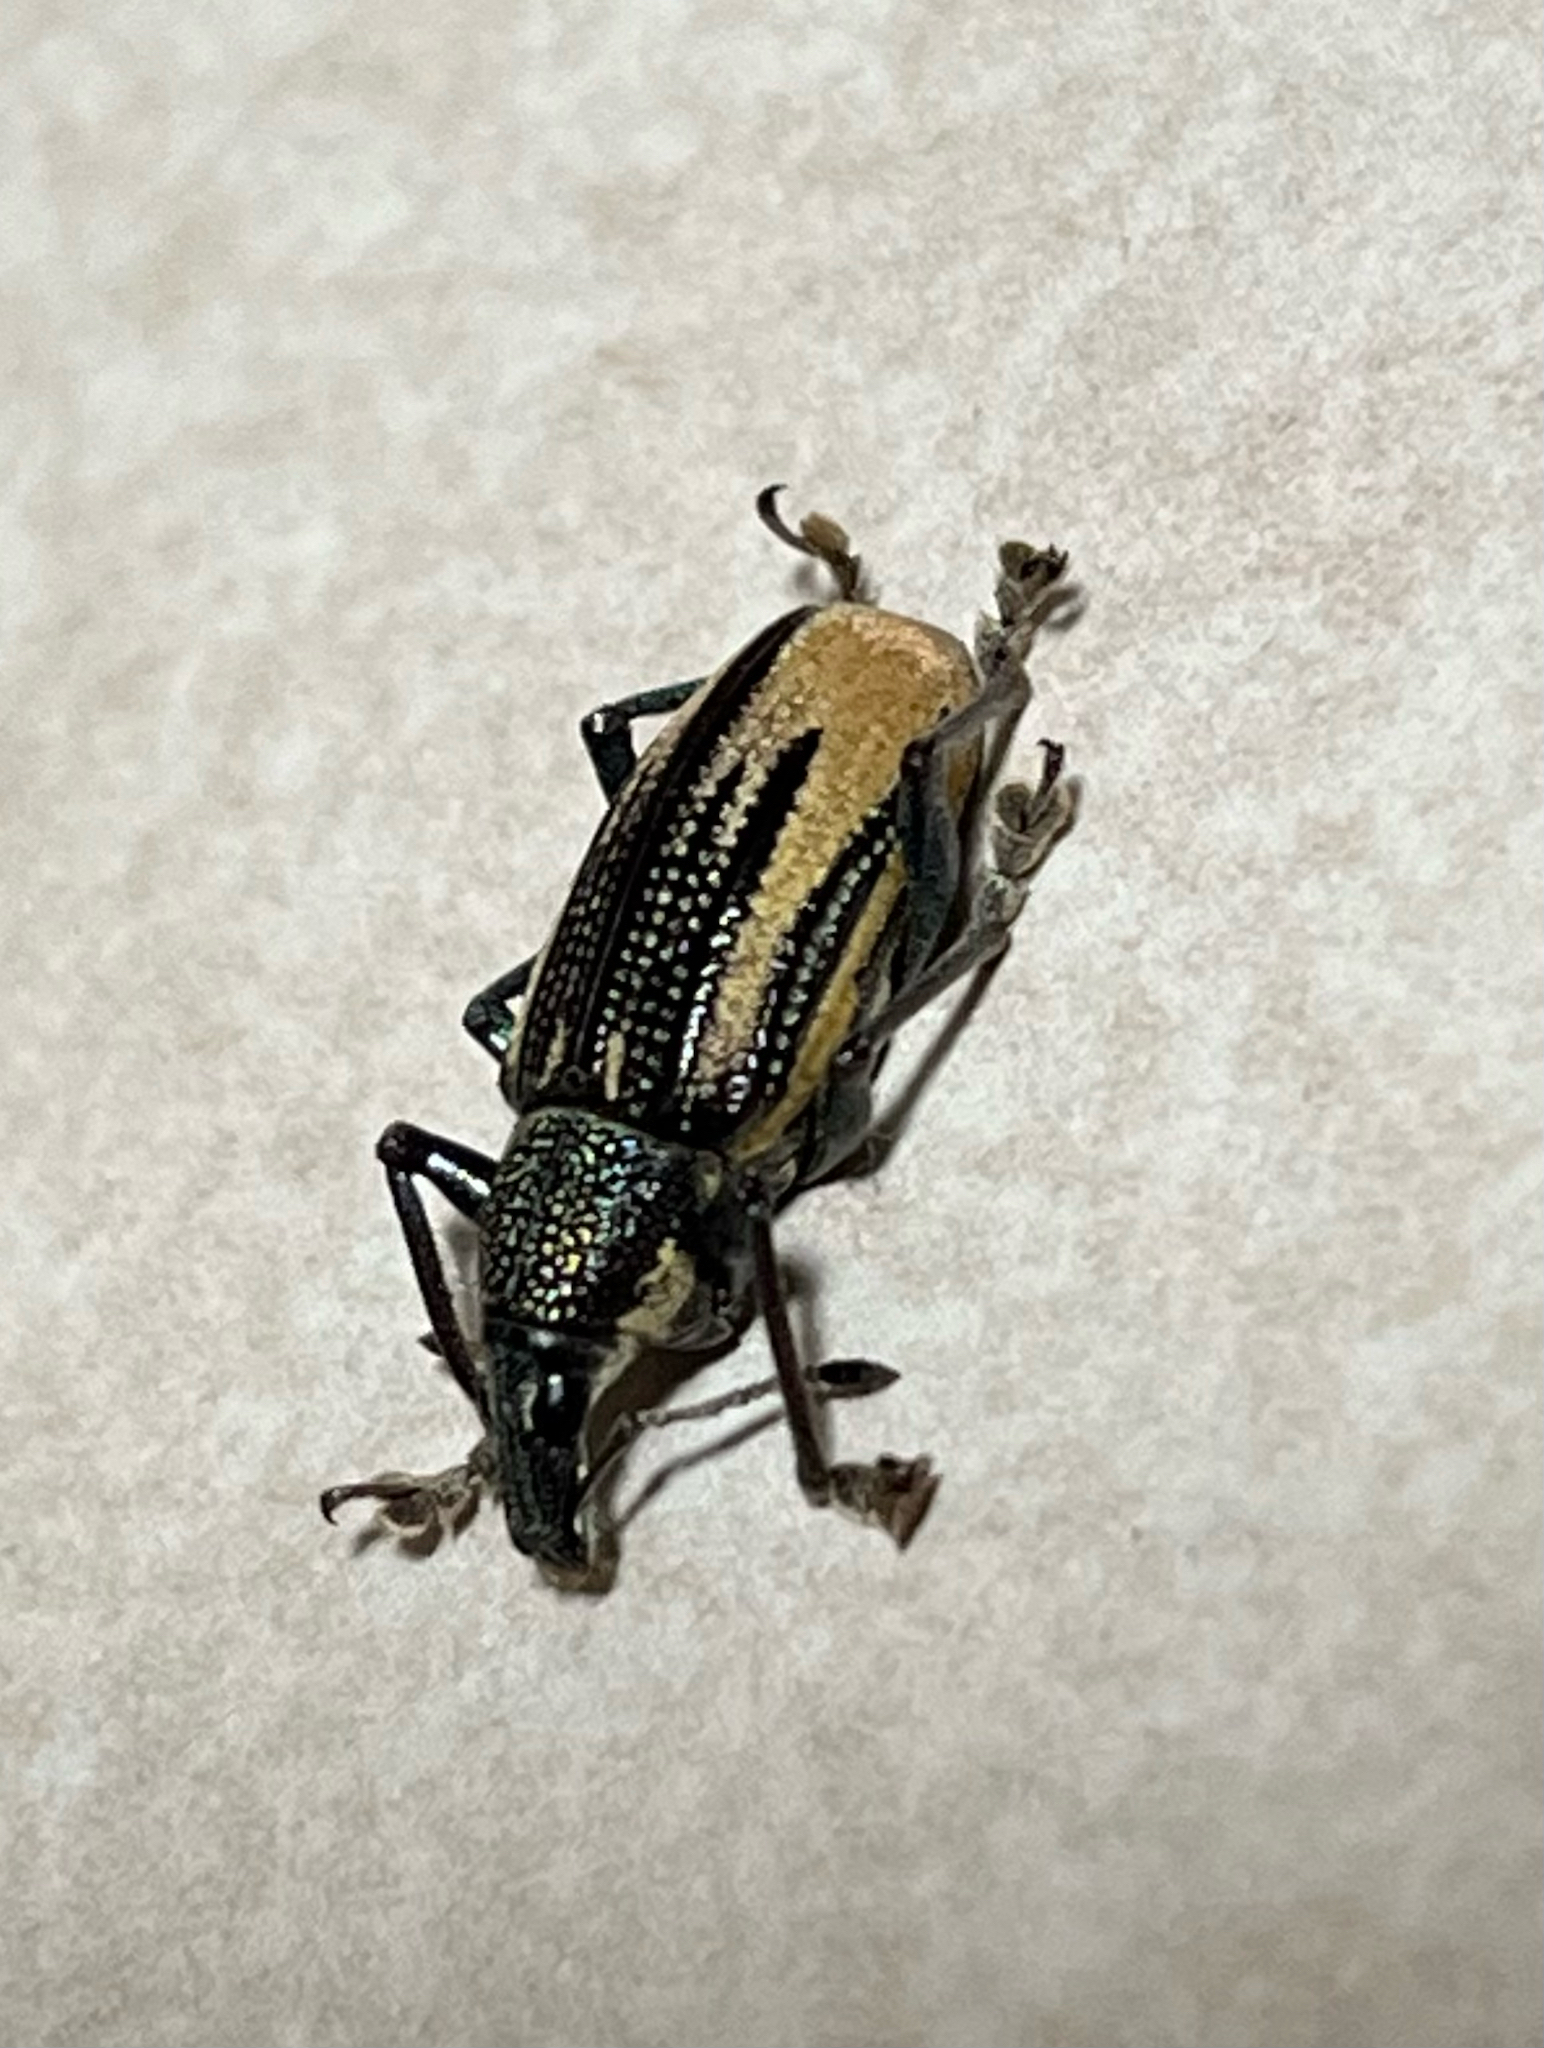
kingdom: Animalia
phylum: Arthropoda
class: Insecta
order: Coleoptera
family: Curculionidae
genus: Diaprepes
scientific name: Diaprepes abbreviatus
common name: Root weevil
